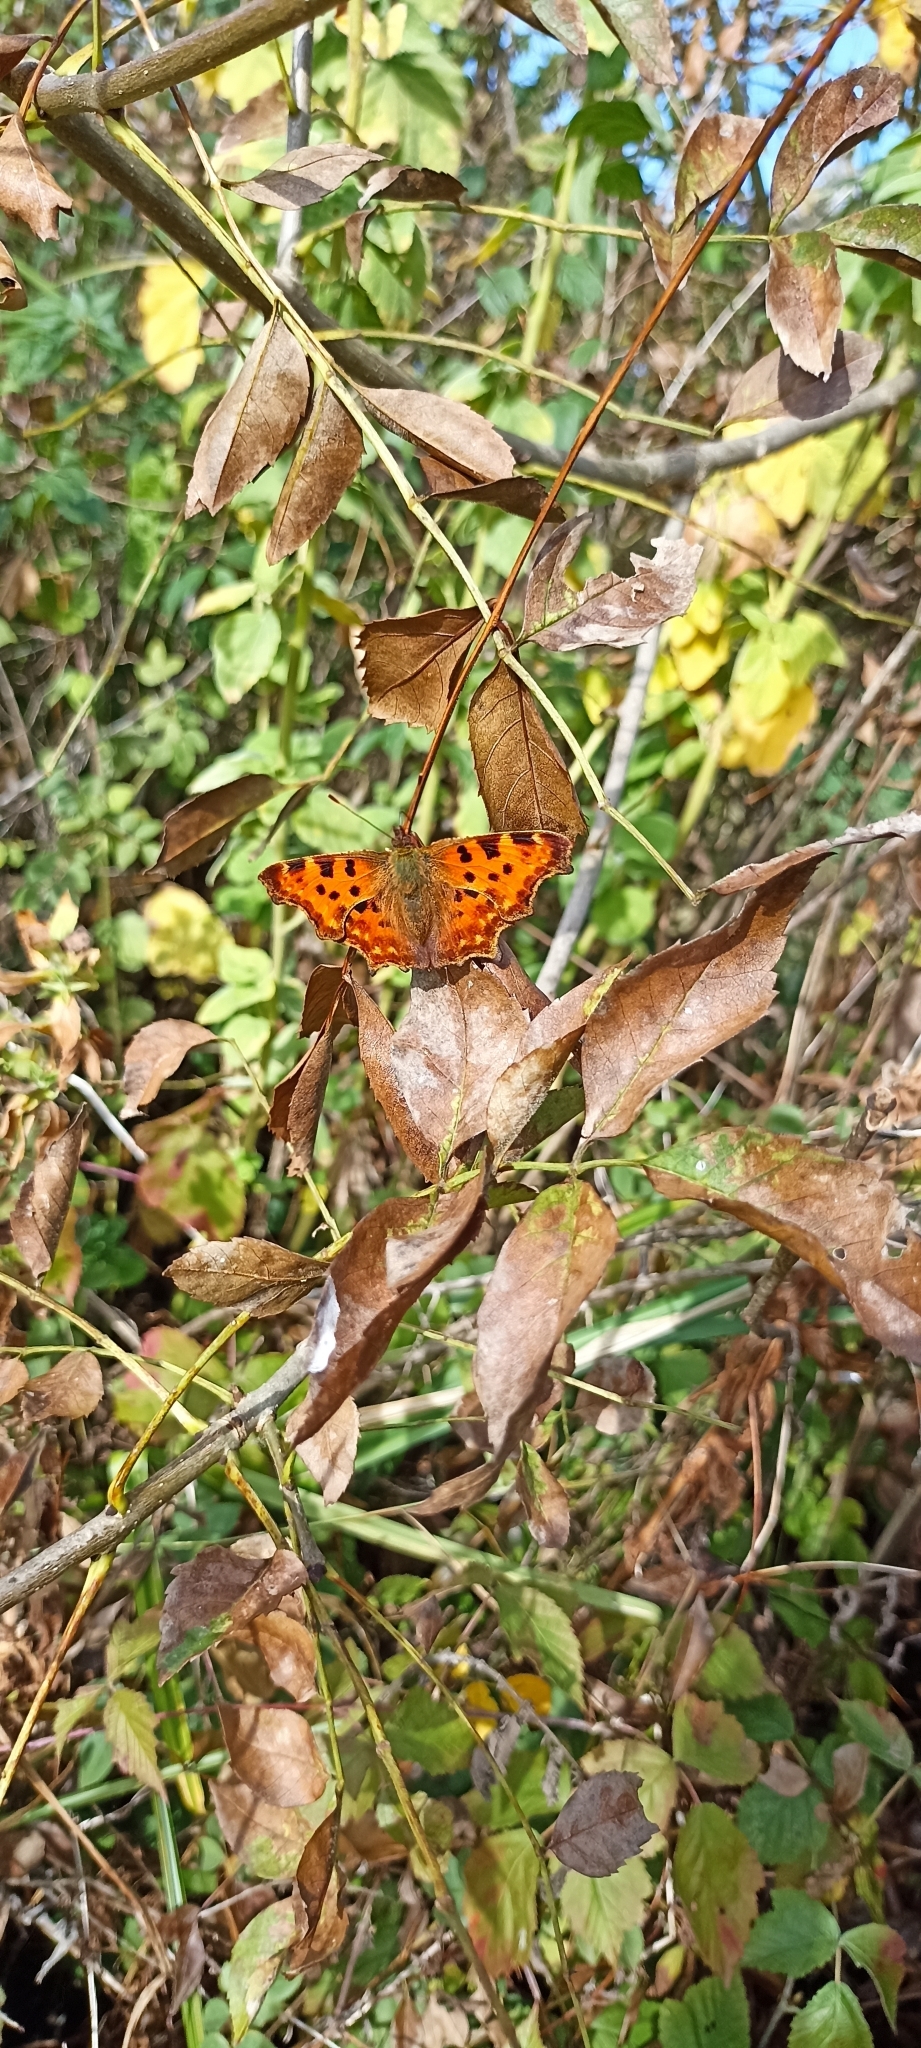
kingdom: Animalia
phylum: Arthropoda
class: Insecta
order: Lepidoptera
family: Nymphalidae
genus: Polygonia
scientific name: Polygonia c-album
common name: Comma
